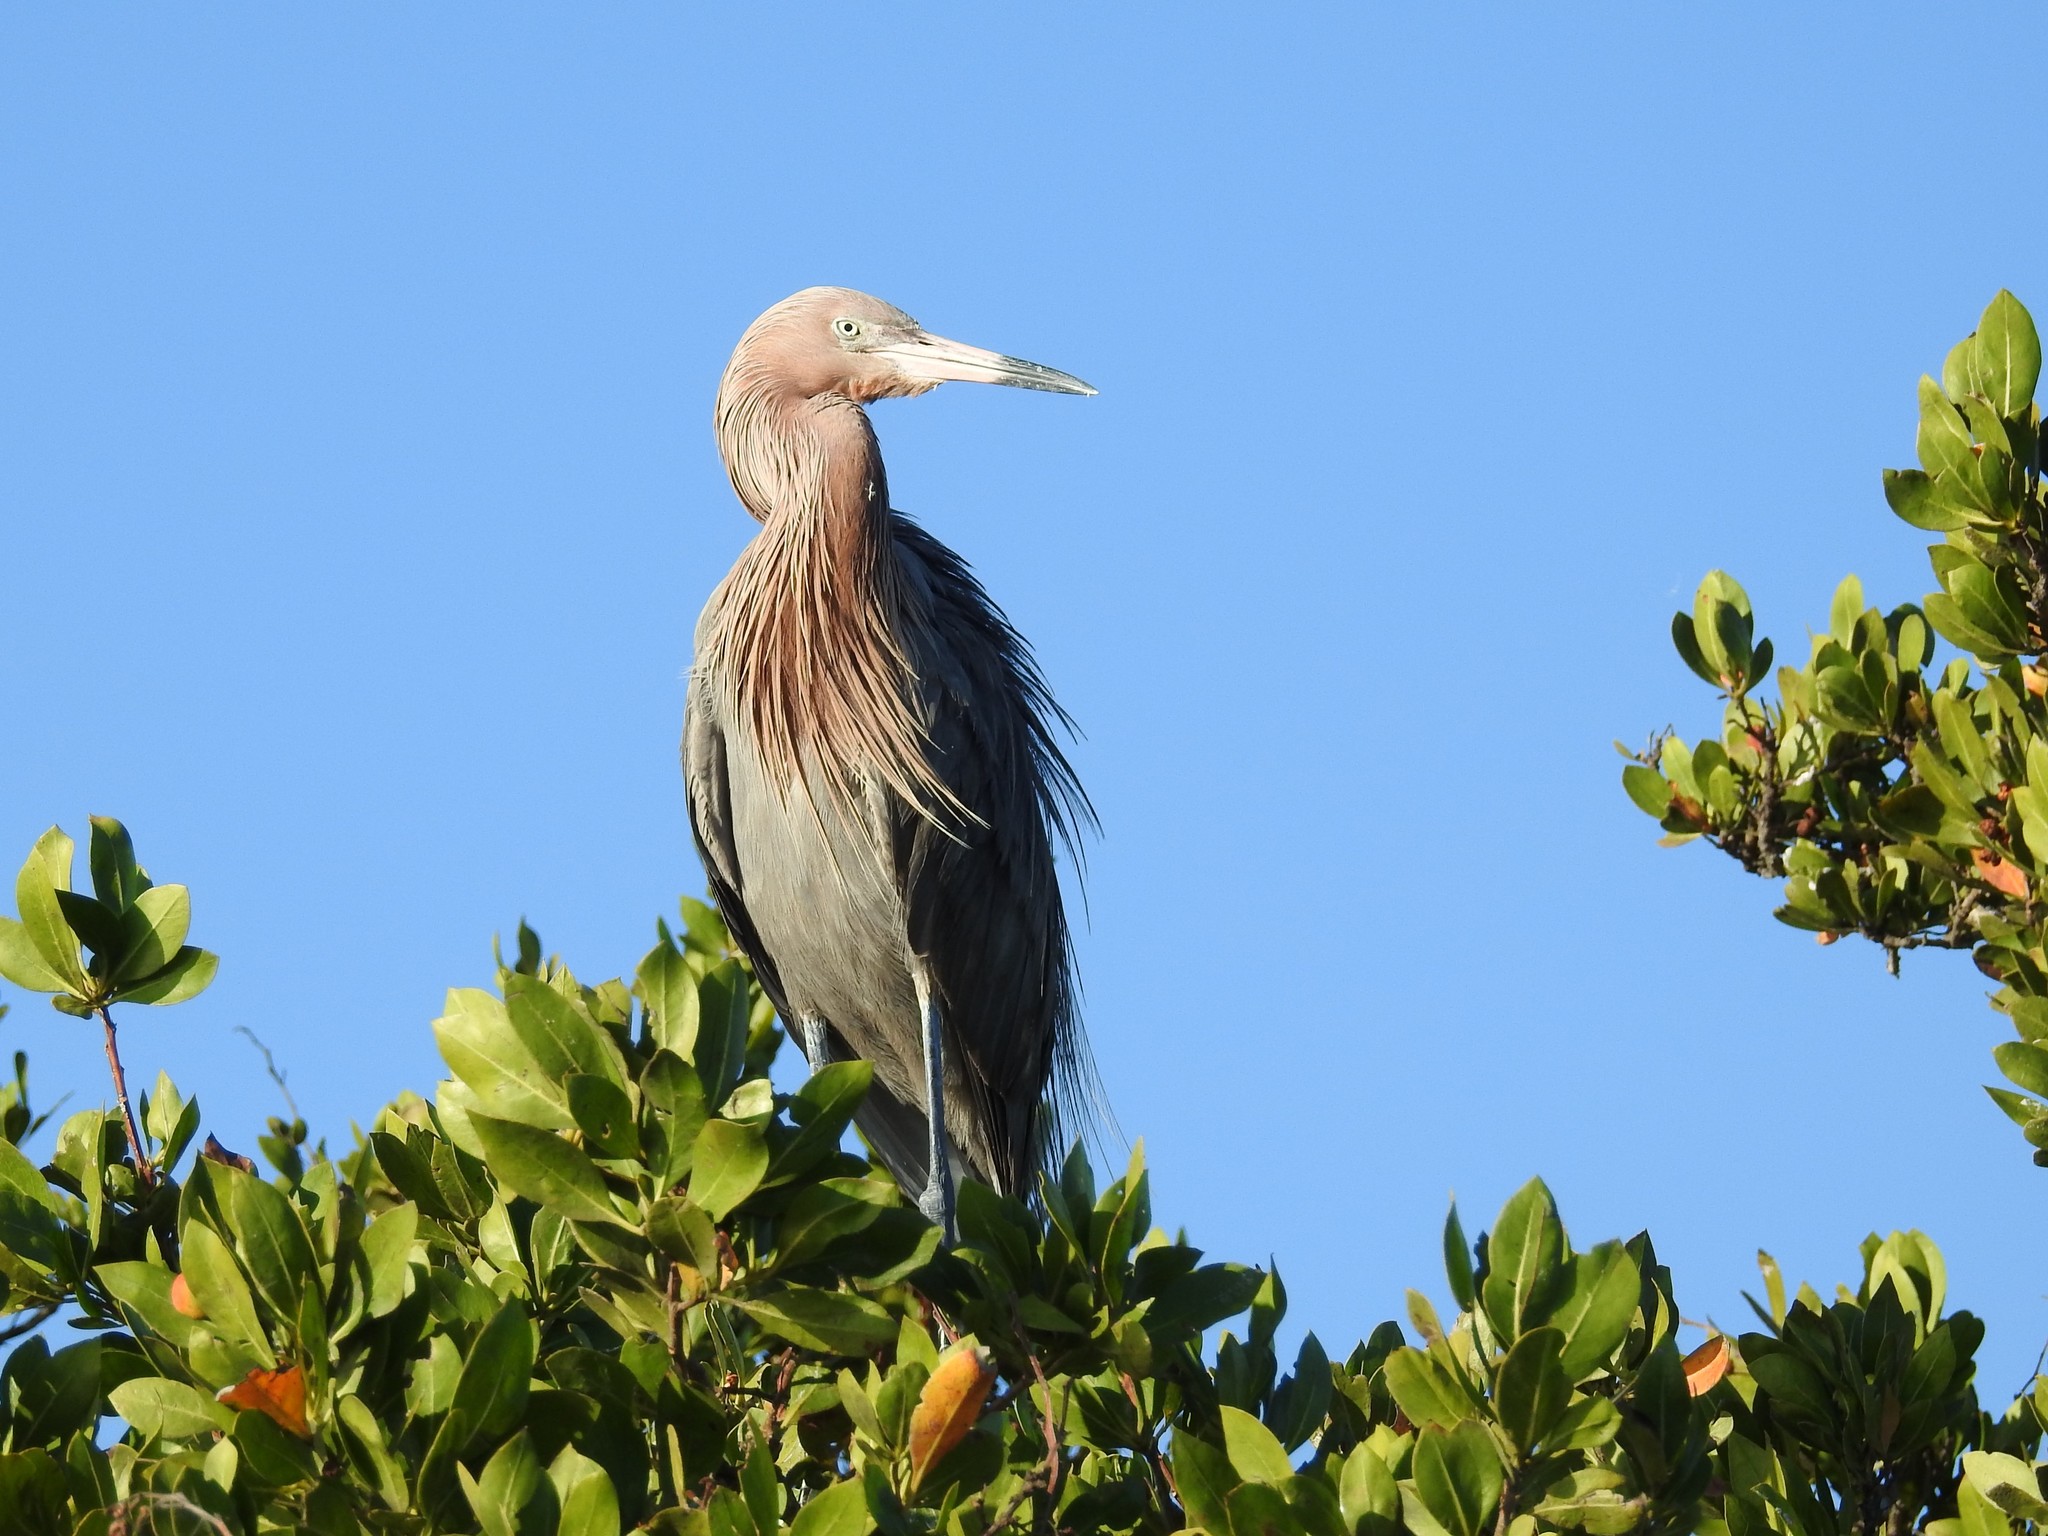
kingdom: Animalia
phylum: Chordata
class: Aves
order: Pelecaniformes
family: Ardeidae
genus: Egretta
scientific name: Egretta rufescens
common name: Reddish egret
